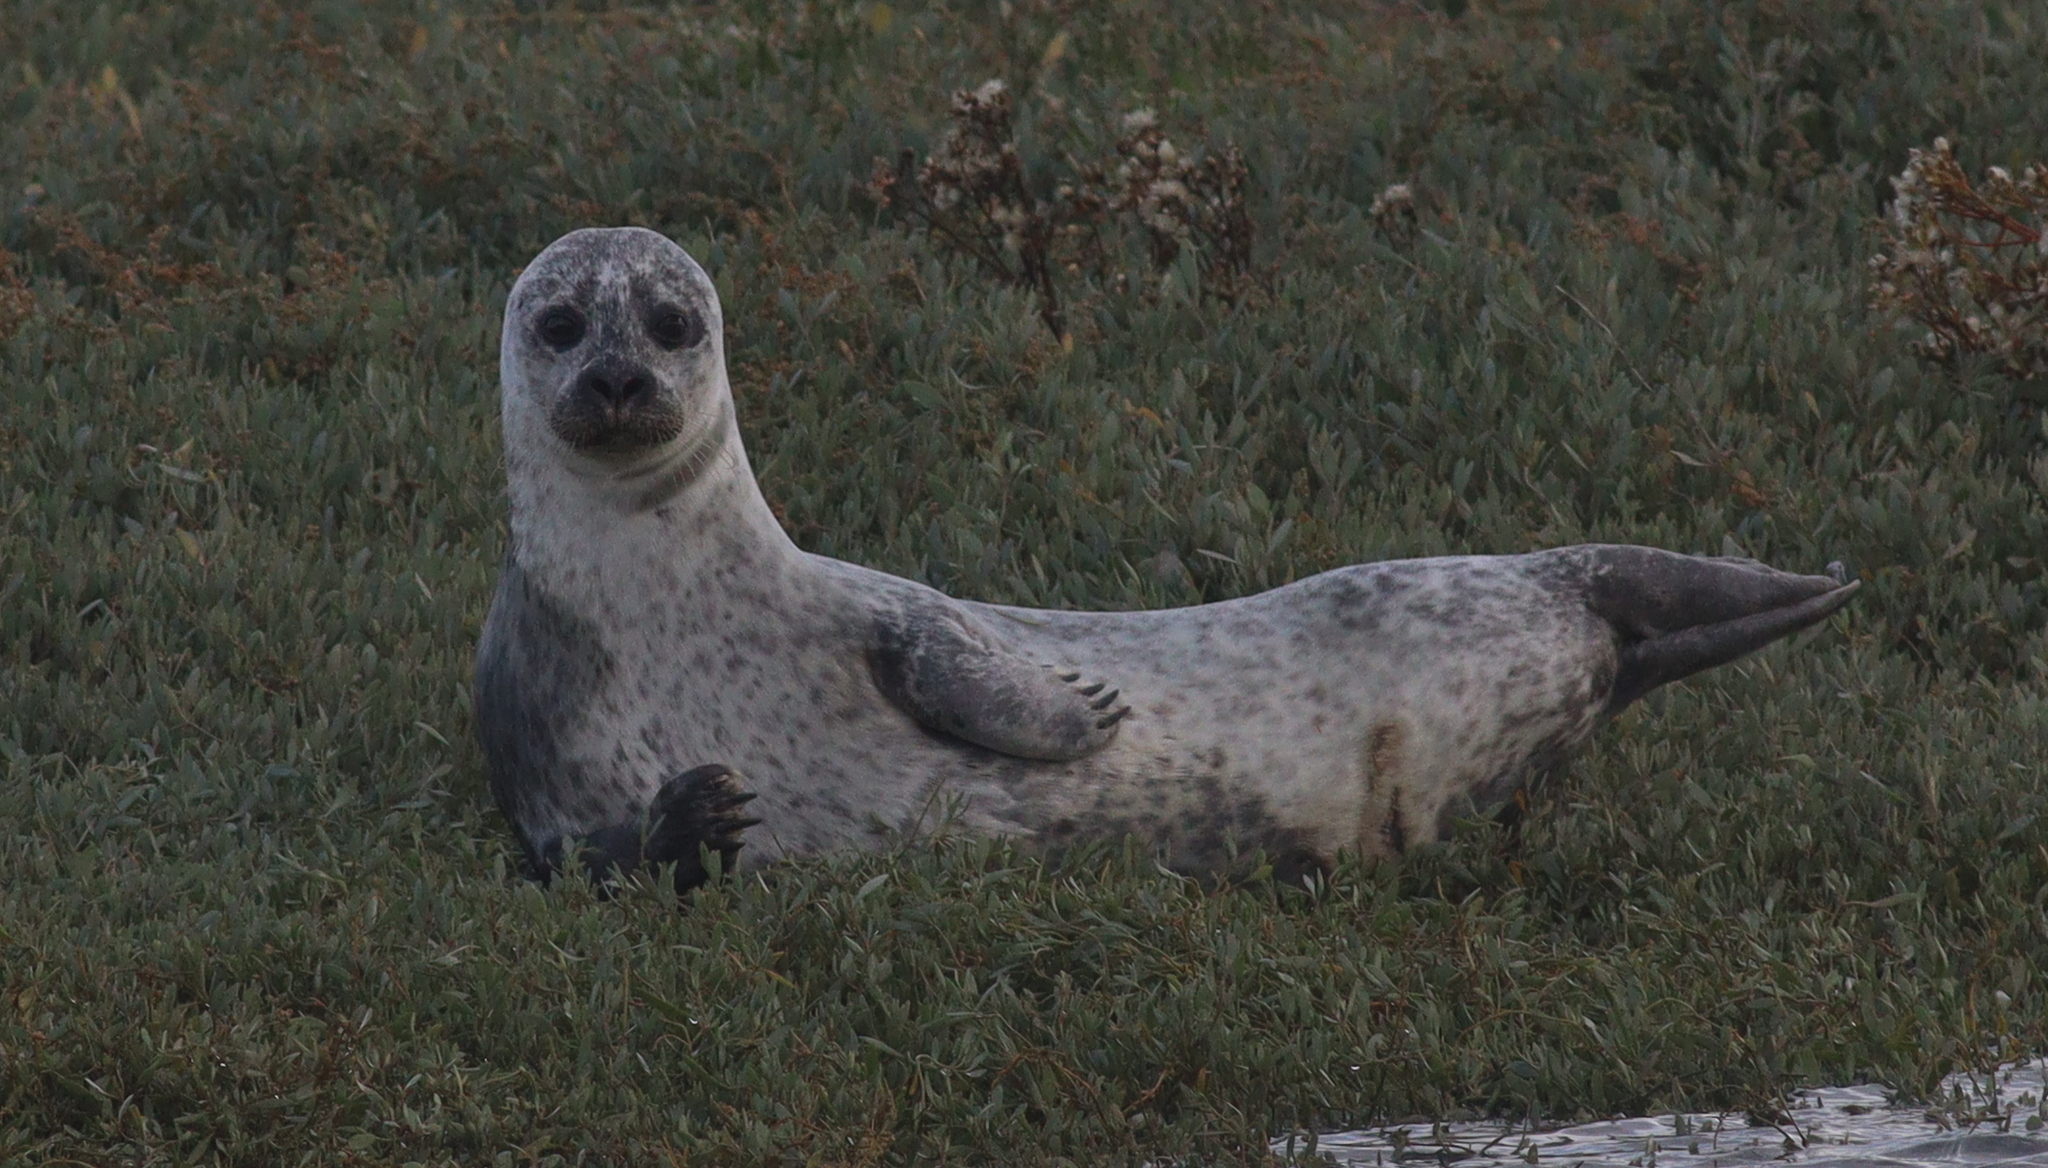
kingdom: Animalia
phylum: Chordata
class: Mammalia
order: Carnivora
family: Phocidae
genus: Phoca
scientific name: Phoca vitulina
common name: Harbor seal
